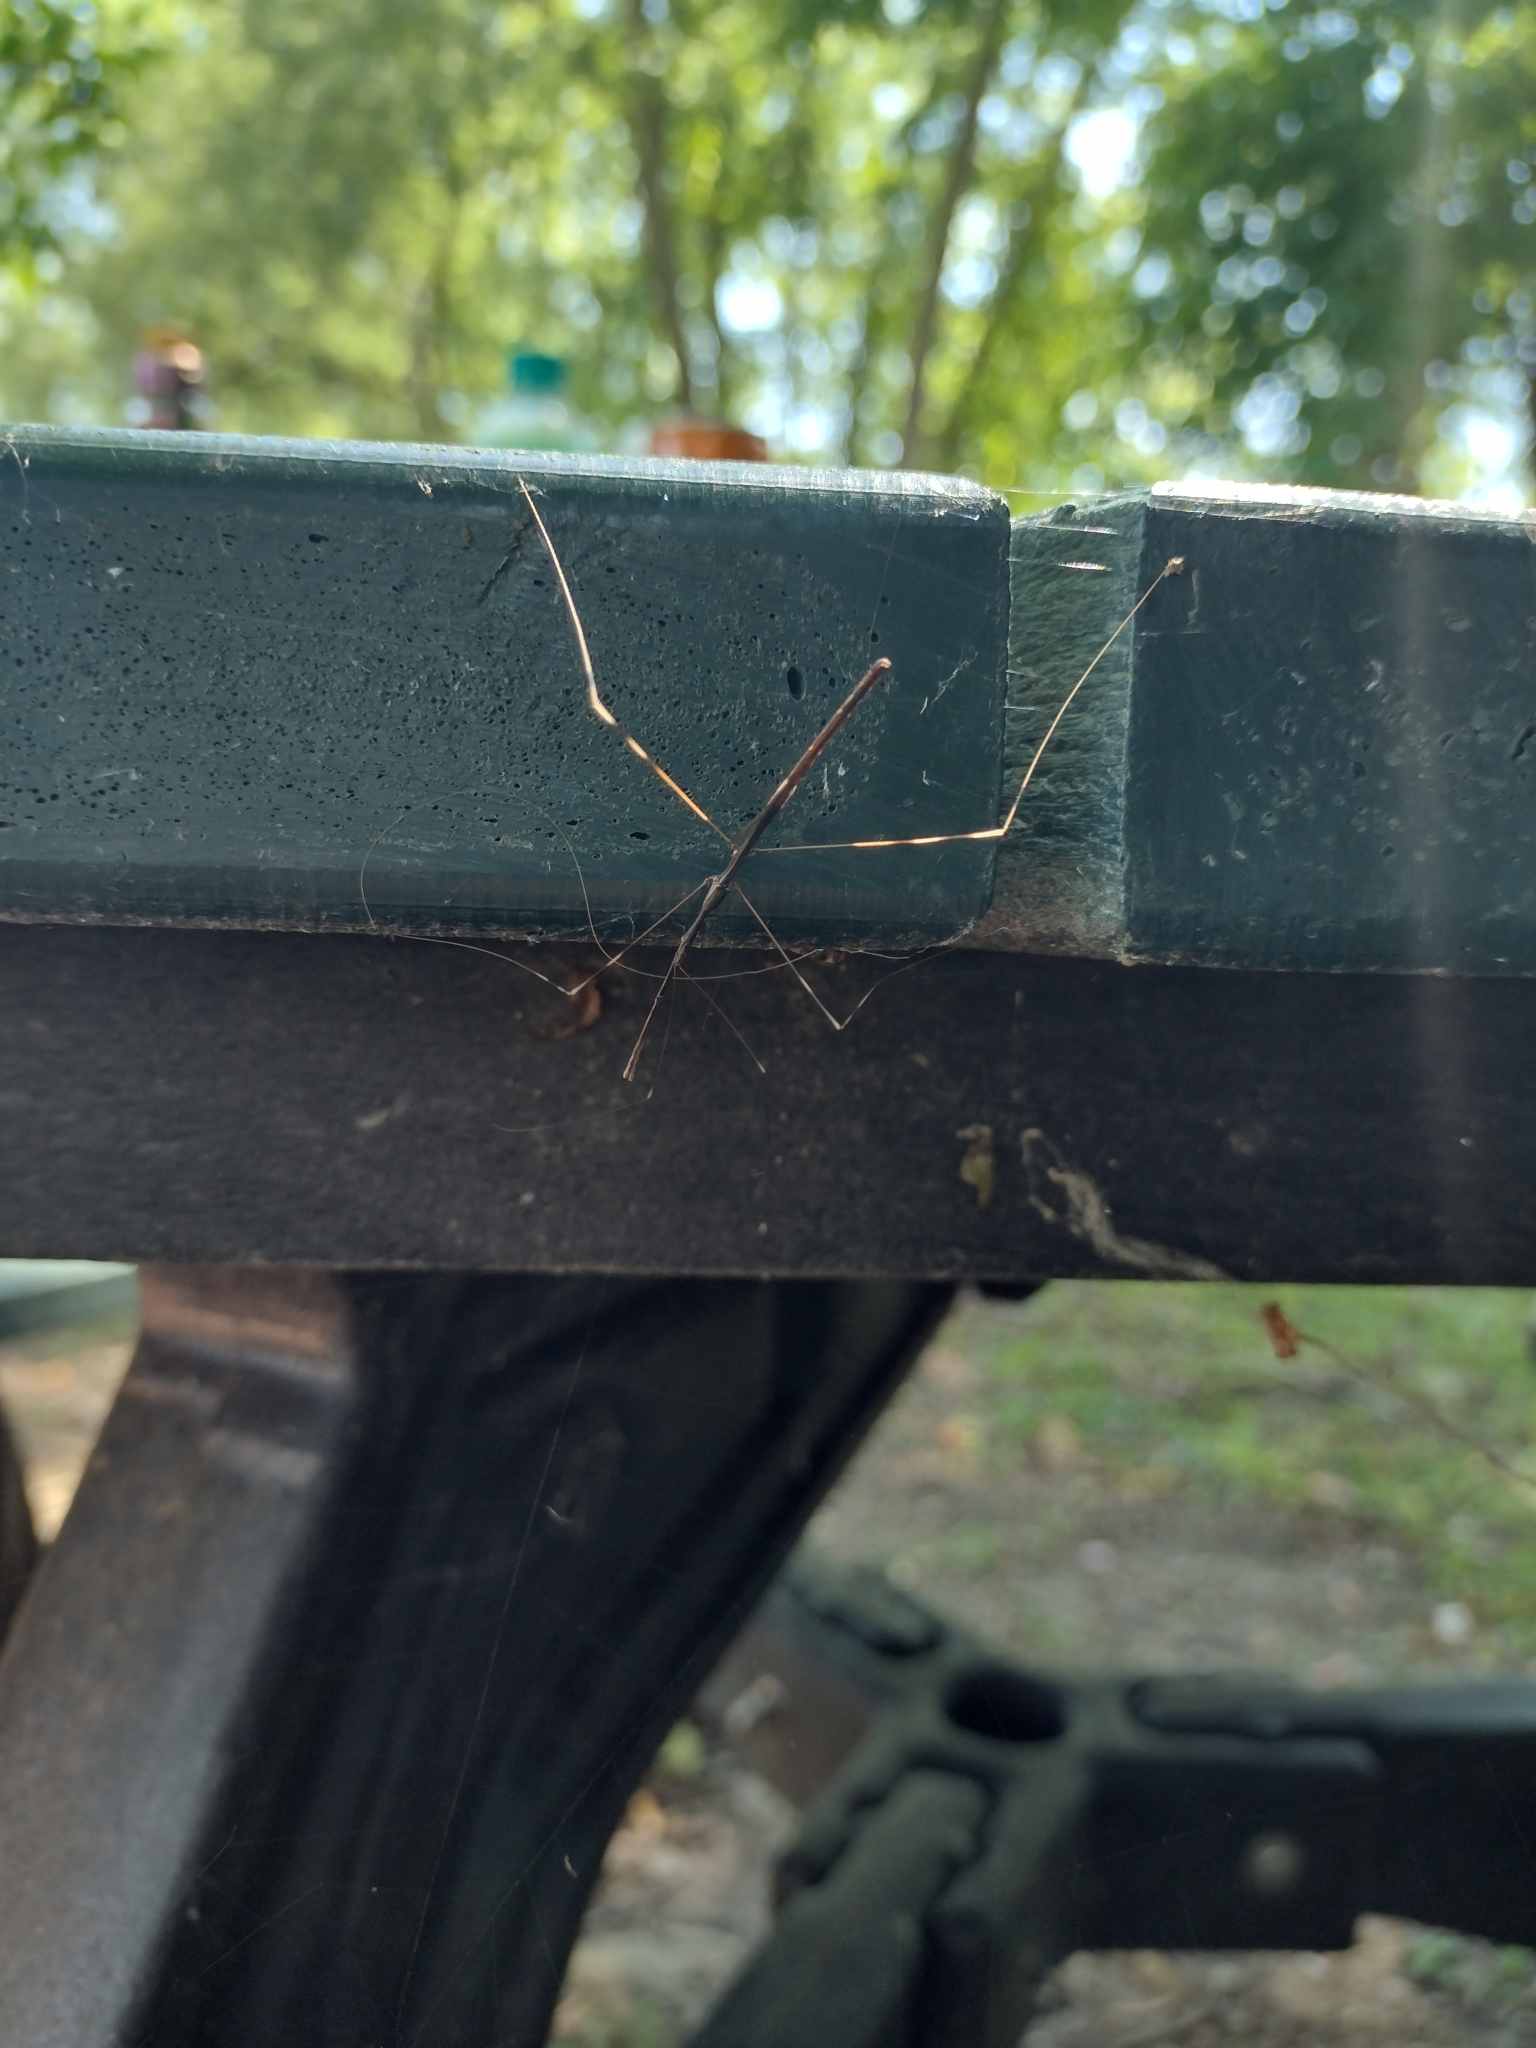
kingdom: Animalia
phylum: Arthropoda
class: Insecta
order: Hemiptera
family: Reduviidae
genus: Emesaya
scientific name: Emesaya brevipennis
